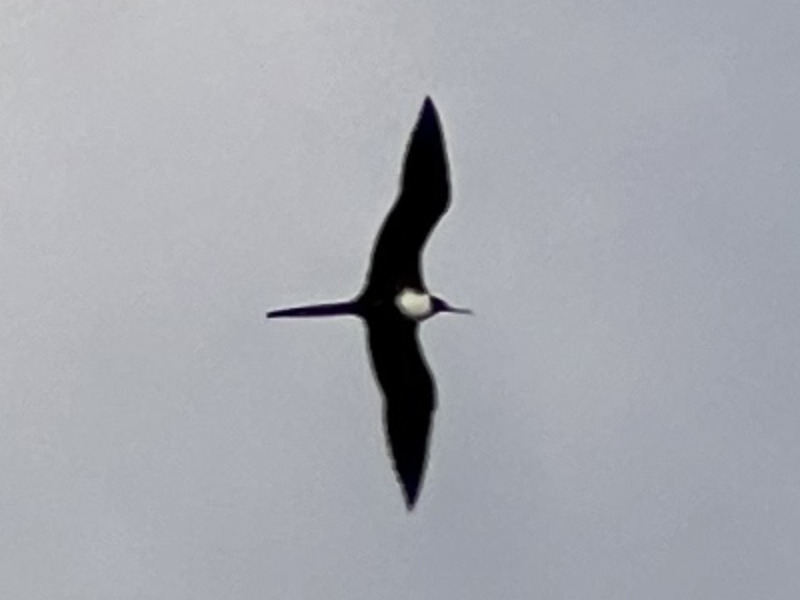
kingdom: Animalia
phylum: Chordata
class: Aves
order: Suliformes
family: Fregatidae
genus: Fregata
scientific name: Fregata magnificens
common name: Magnificent frigatebird
